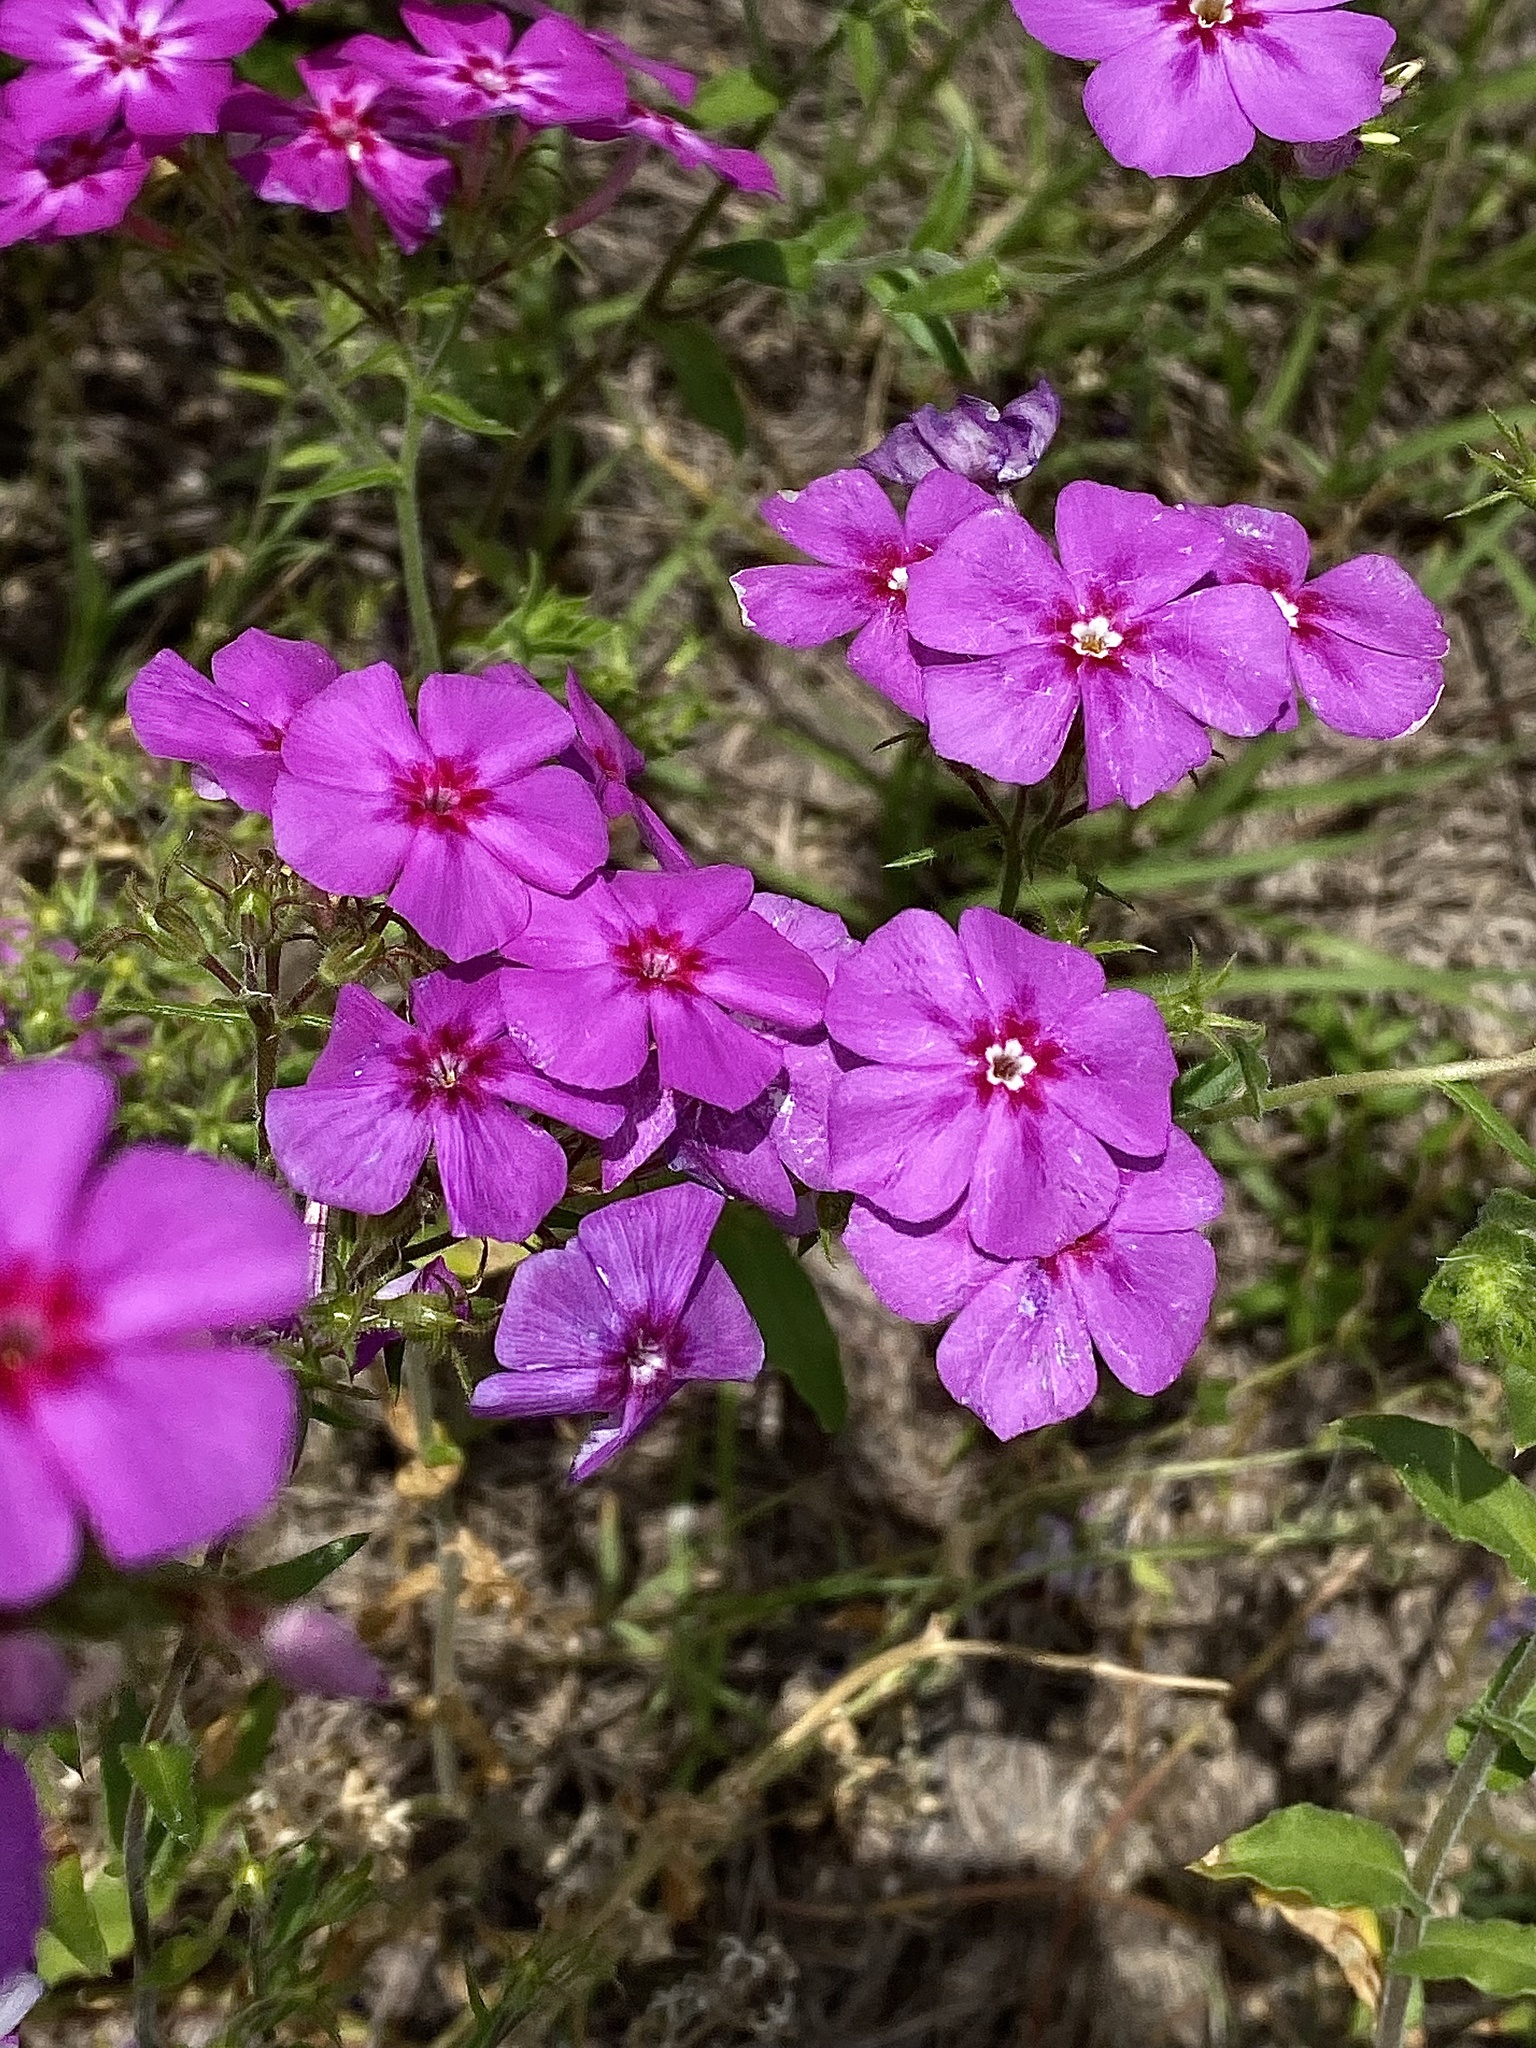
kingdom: Plantae
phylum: Tracheophyta
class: Magnoliopsida
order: Ericales
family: Polemoniaceae
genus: Phlox
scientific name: Phlox drummondii
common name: Drummond's phlox
